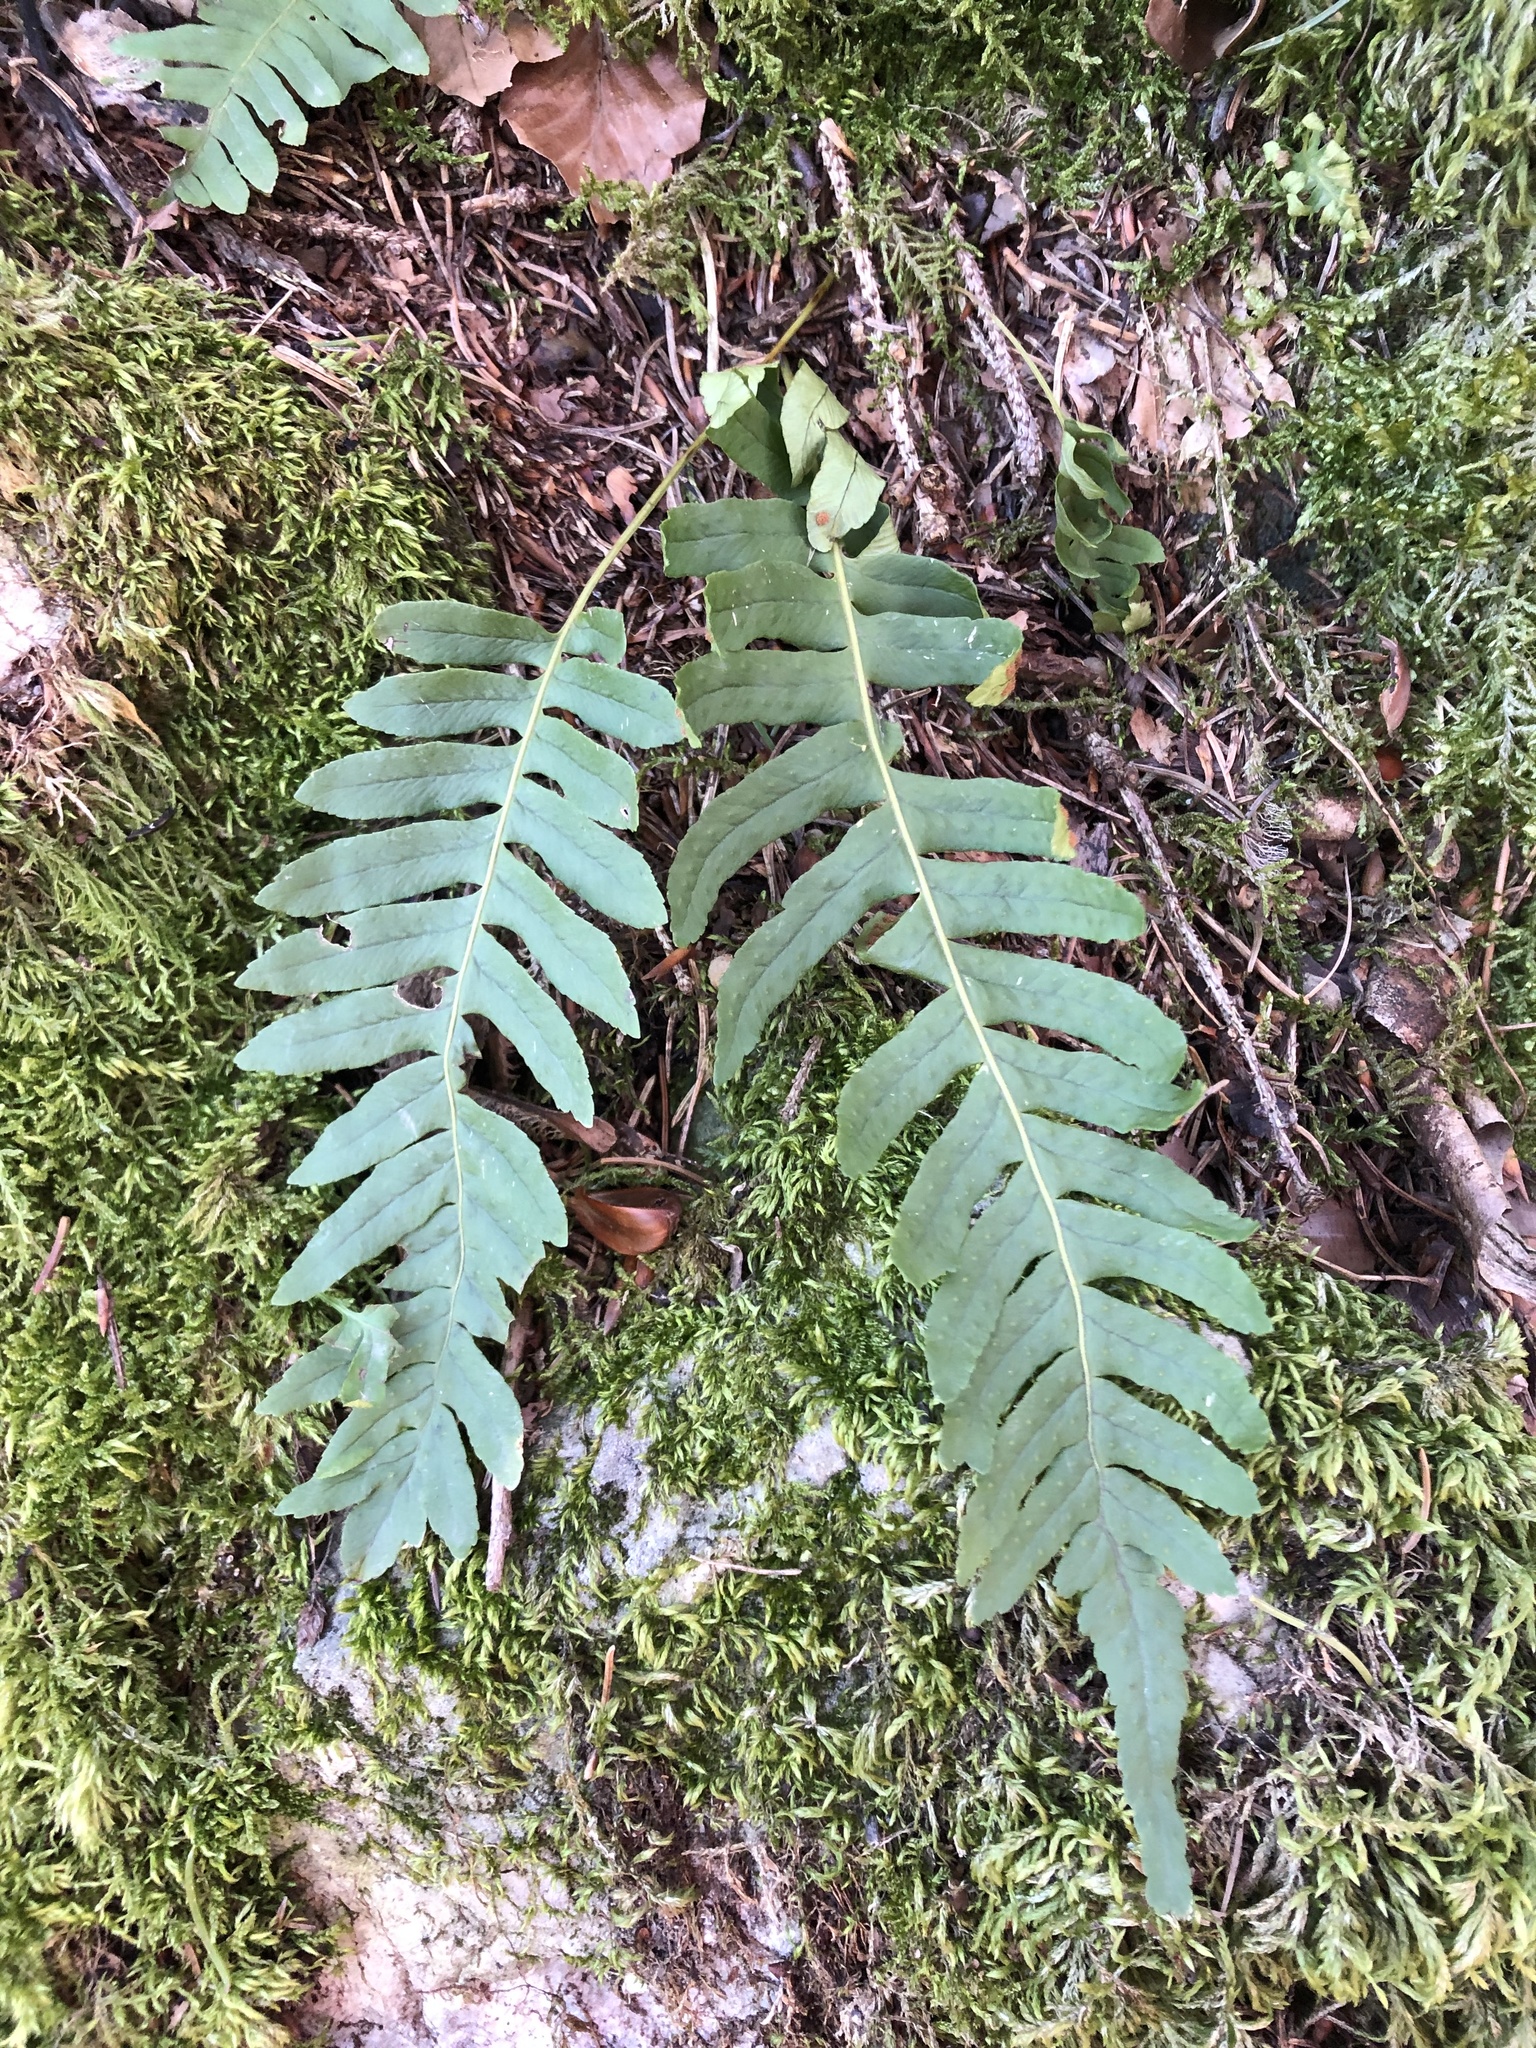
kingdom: Plantae
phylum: Tracheophyta
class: Polypodiopsida
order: Polypodiales
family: Polypodiaceae
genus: Polypodium
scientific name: Polypodium vulgare
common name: Common polypody
